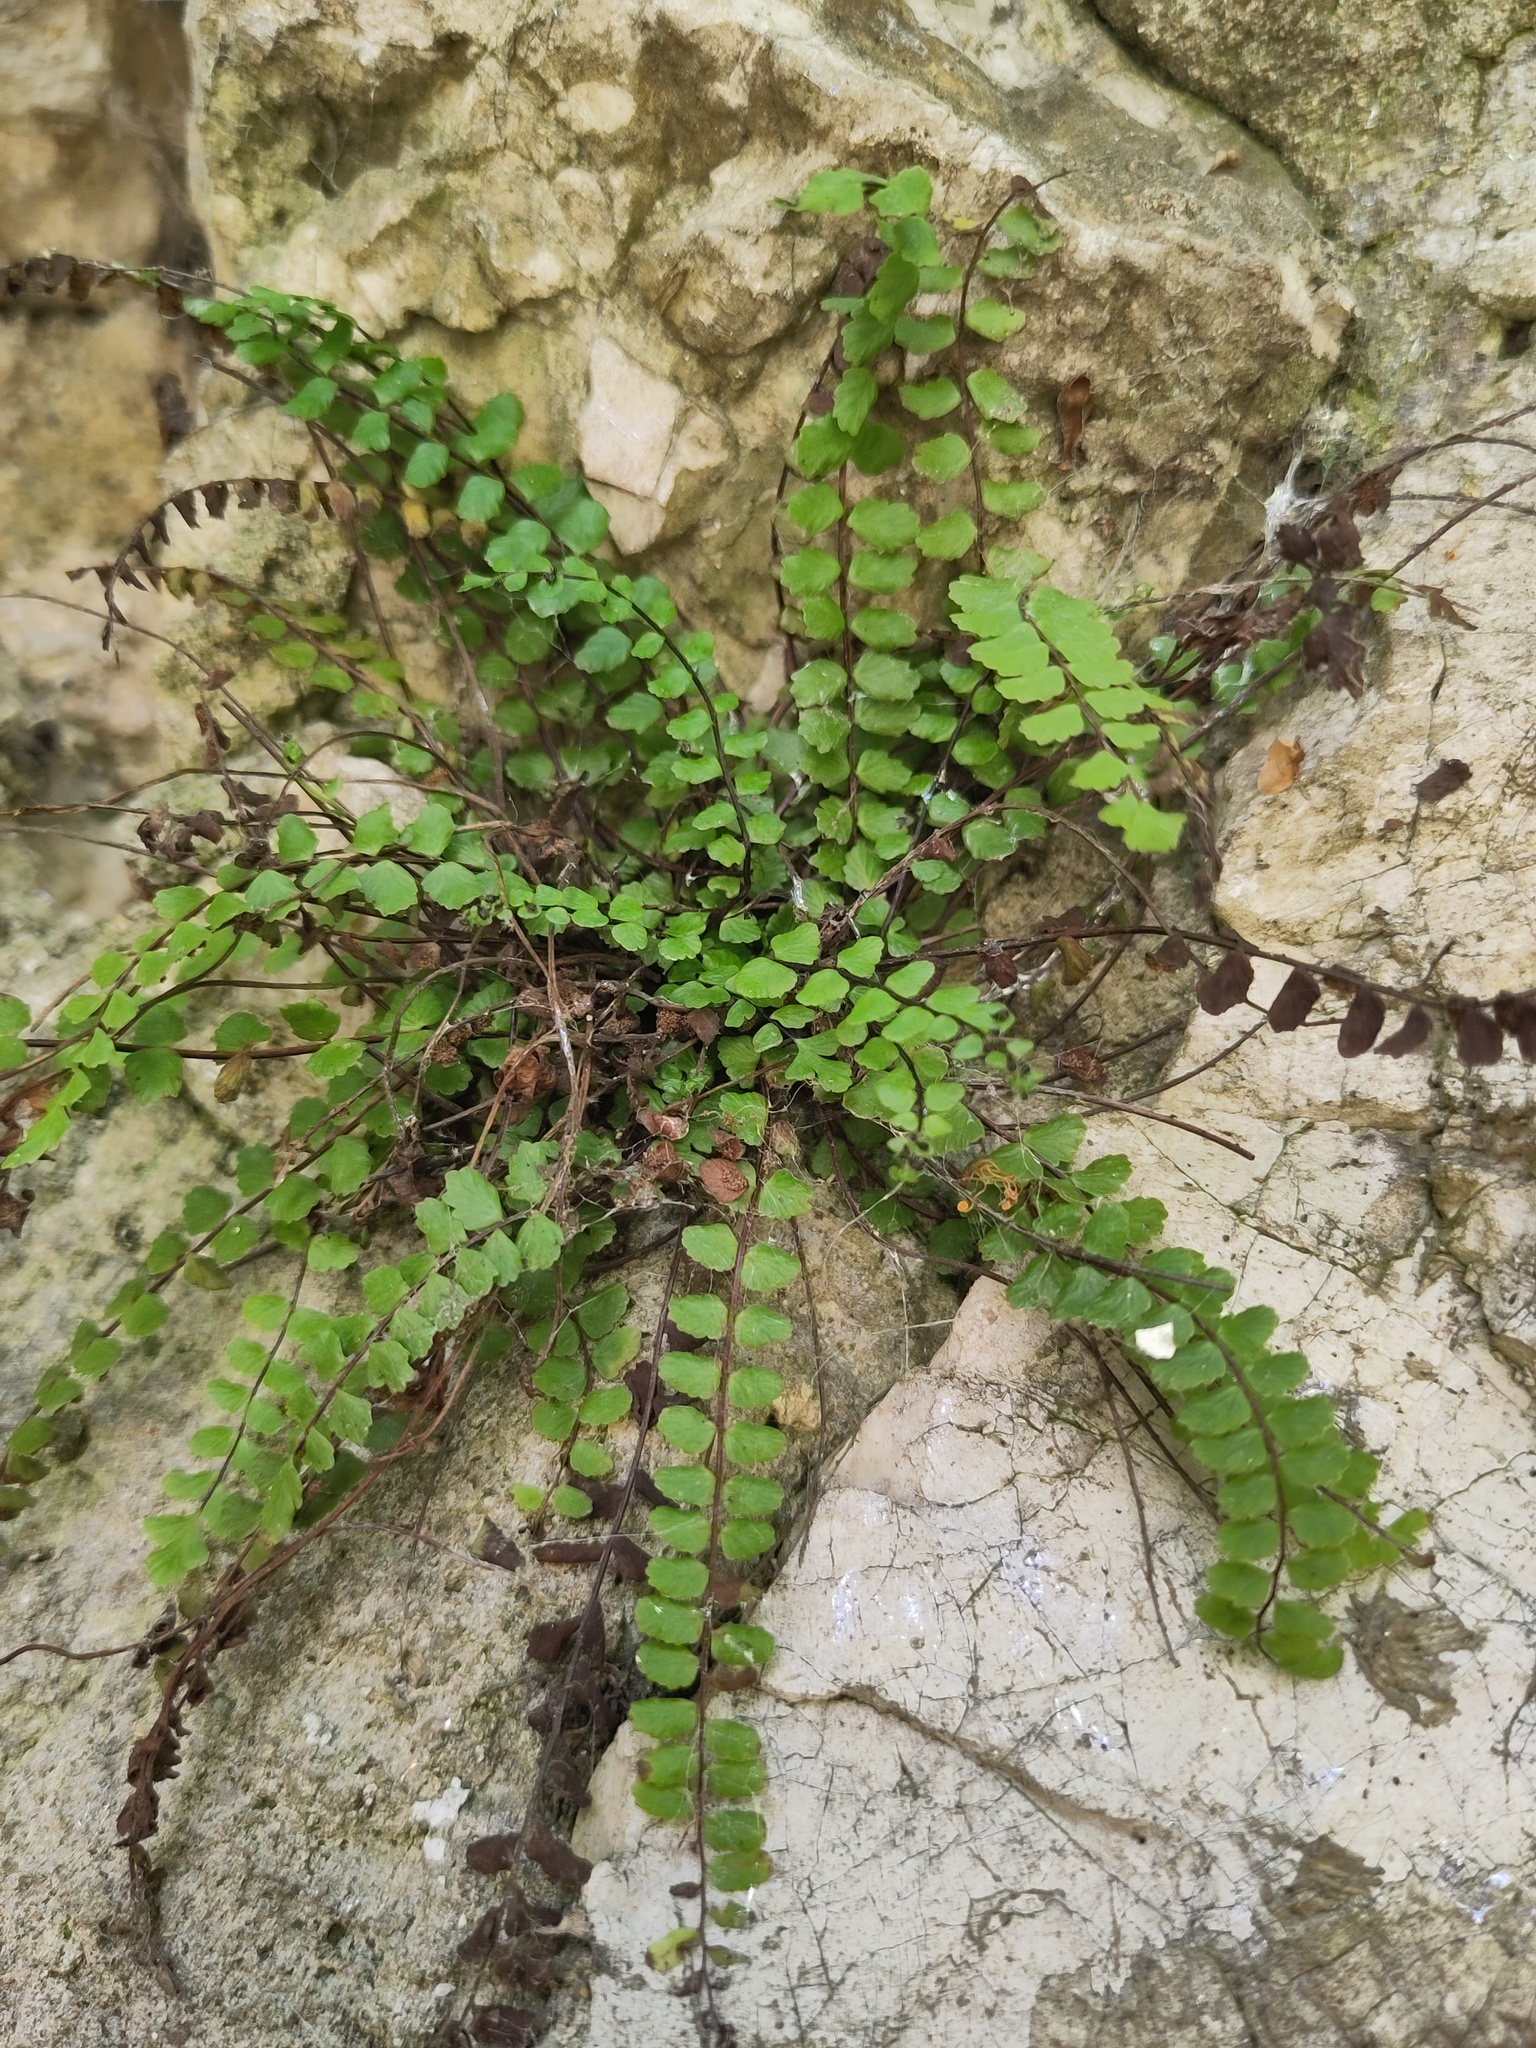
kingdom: Plantae
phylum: Tracheophyta
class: Polypodiopsida
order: Polypodiales
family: Aspleniaceae
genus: Asplenium
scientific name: Asplenium trichomanes
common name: Maidenhair spleenwort
